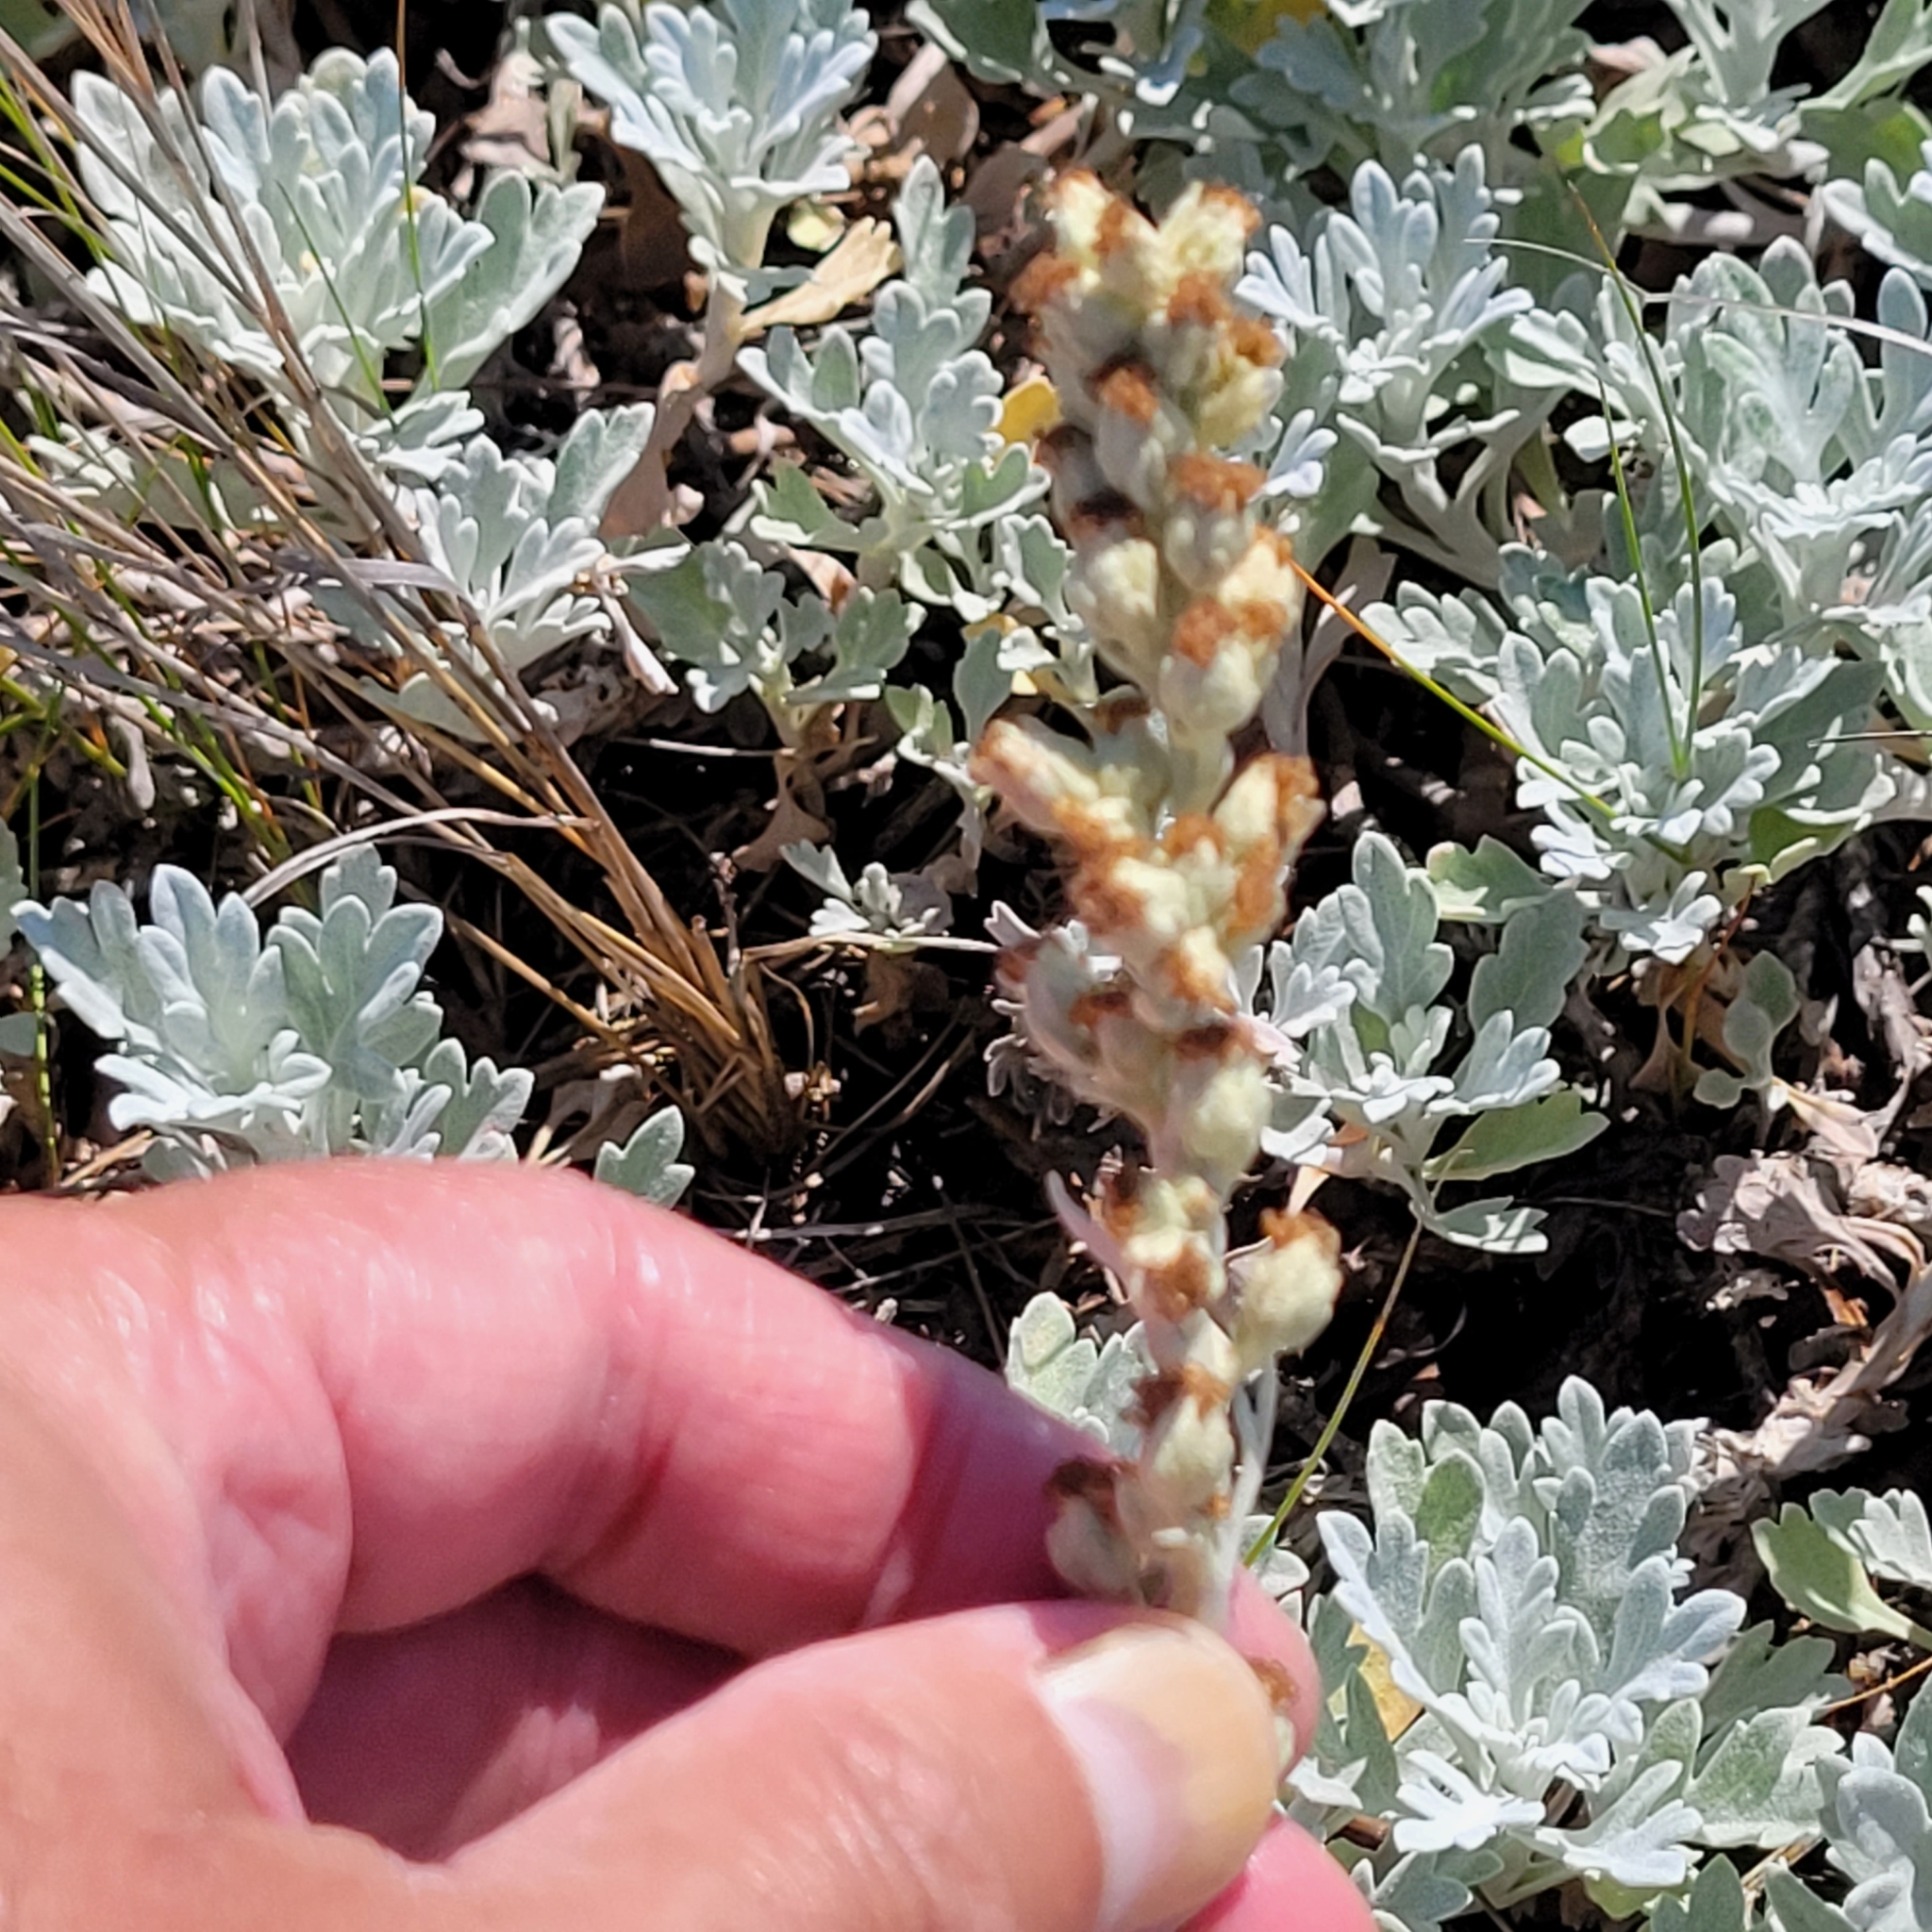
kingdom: Plantae
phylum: Tracheophyta
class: Magnoliopsida
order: Asterales
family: Asteraceae
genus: Artemisia
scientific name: Artemisia stelleriana
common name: Beach wormwood
